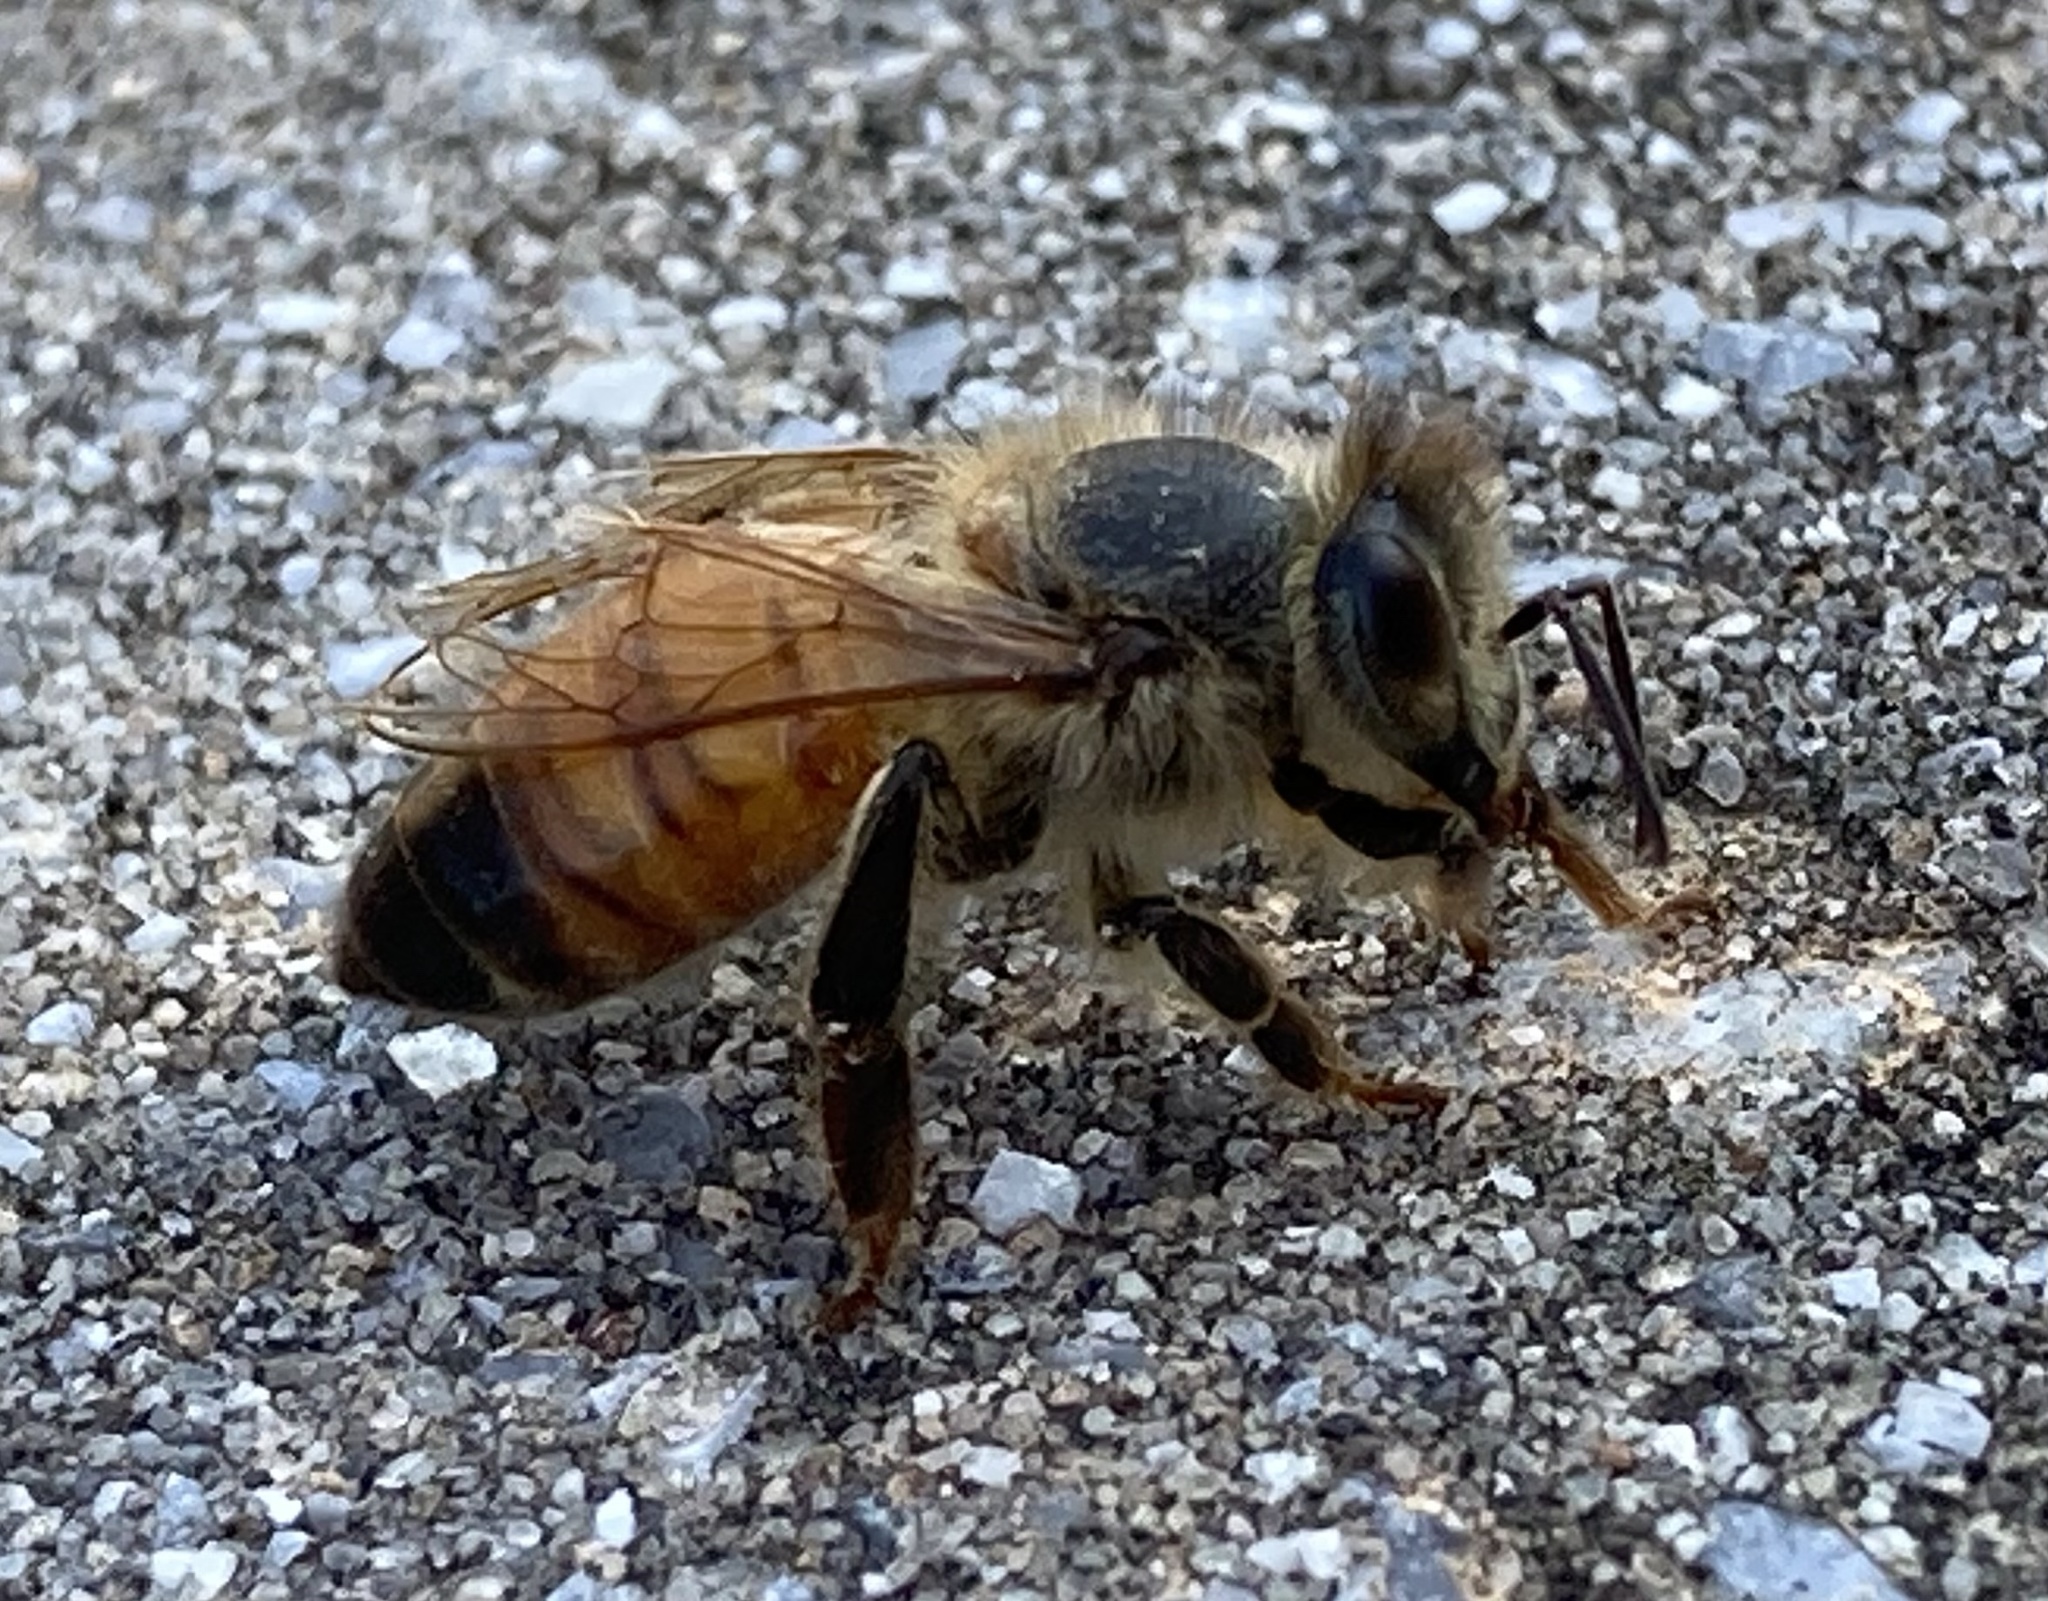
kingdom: Animalia
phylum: Arthropoda
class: Insecta
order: Hymenoptera
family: Apidae
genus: Apis
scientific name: Apis mellifera
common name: Honey bee
